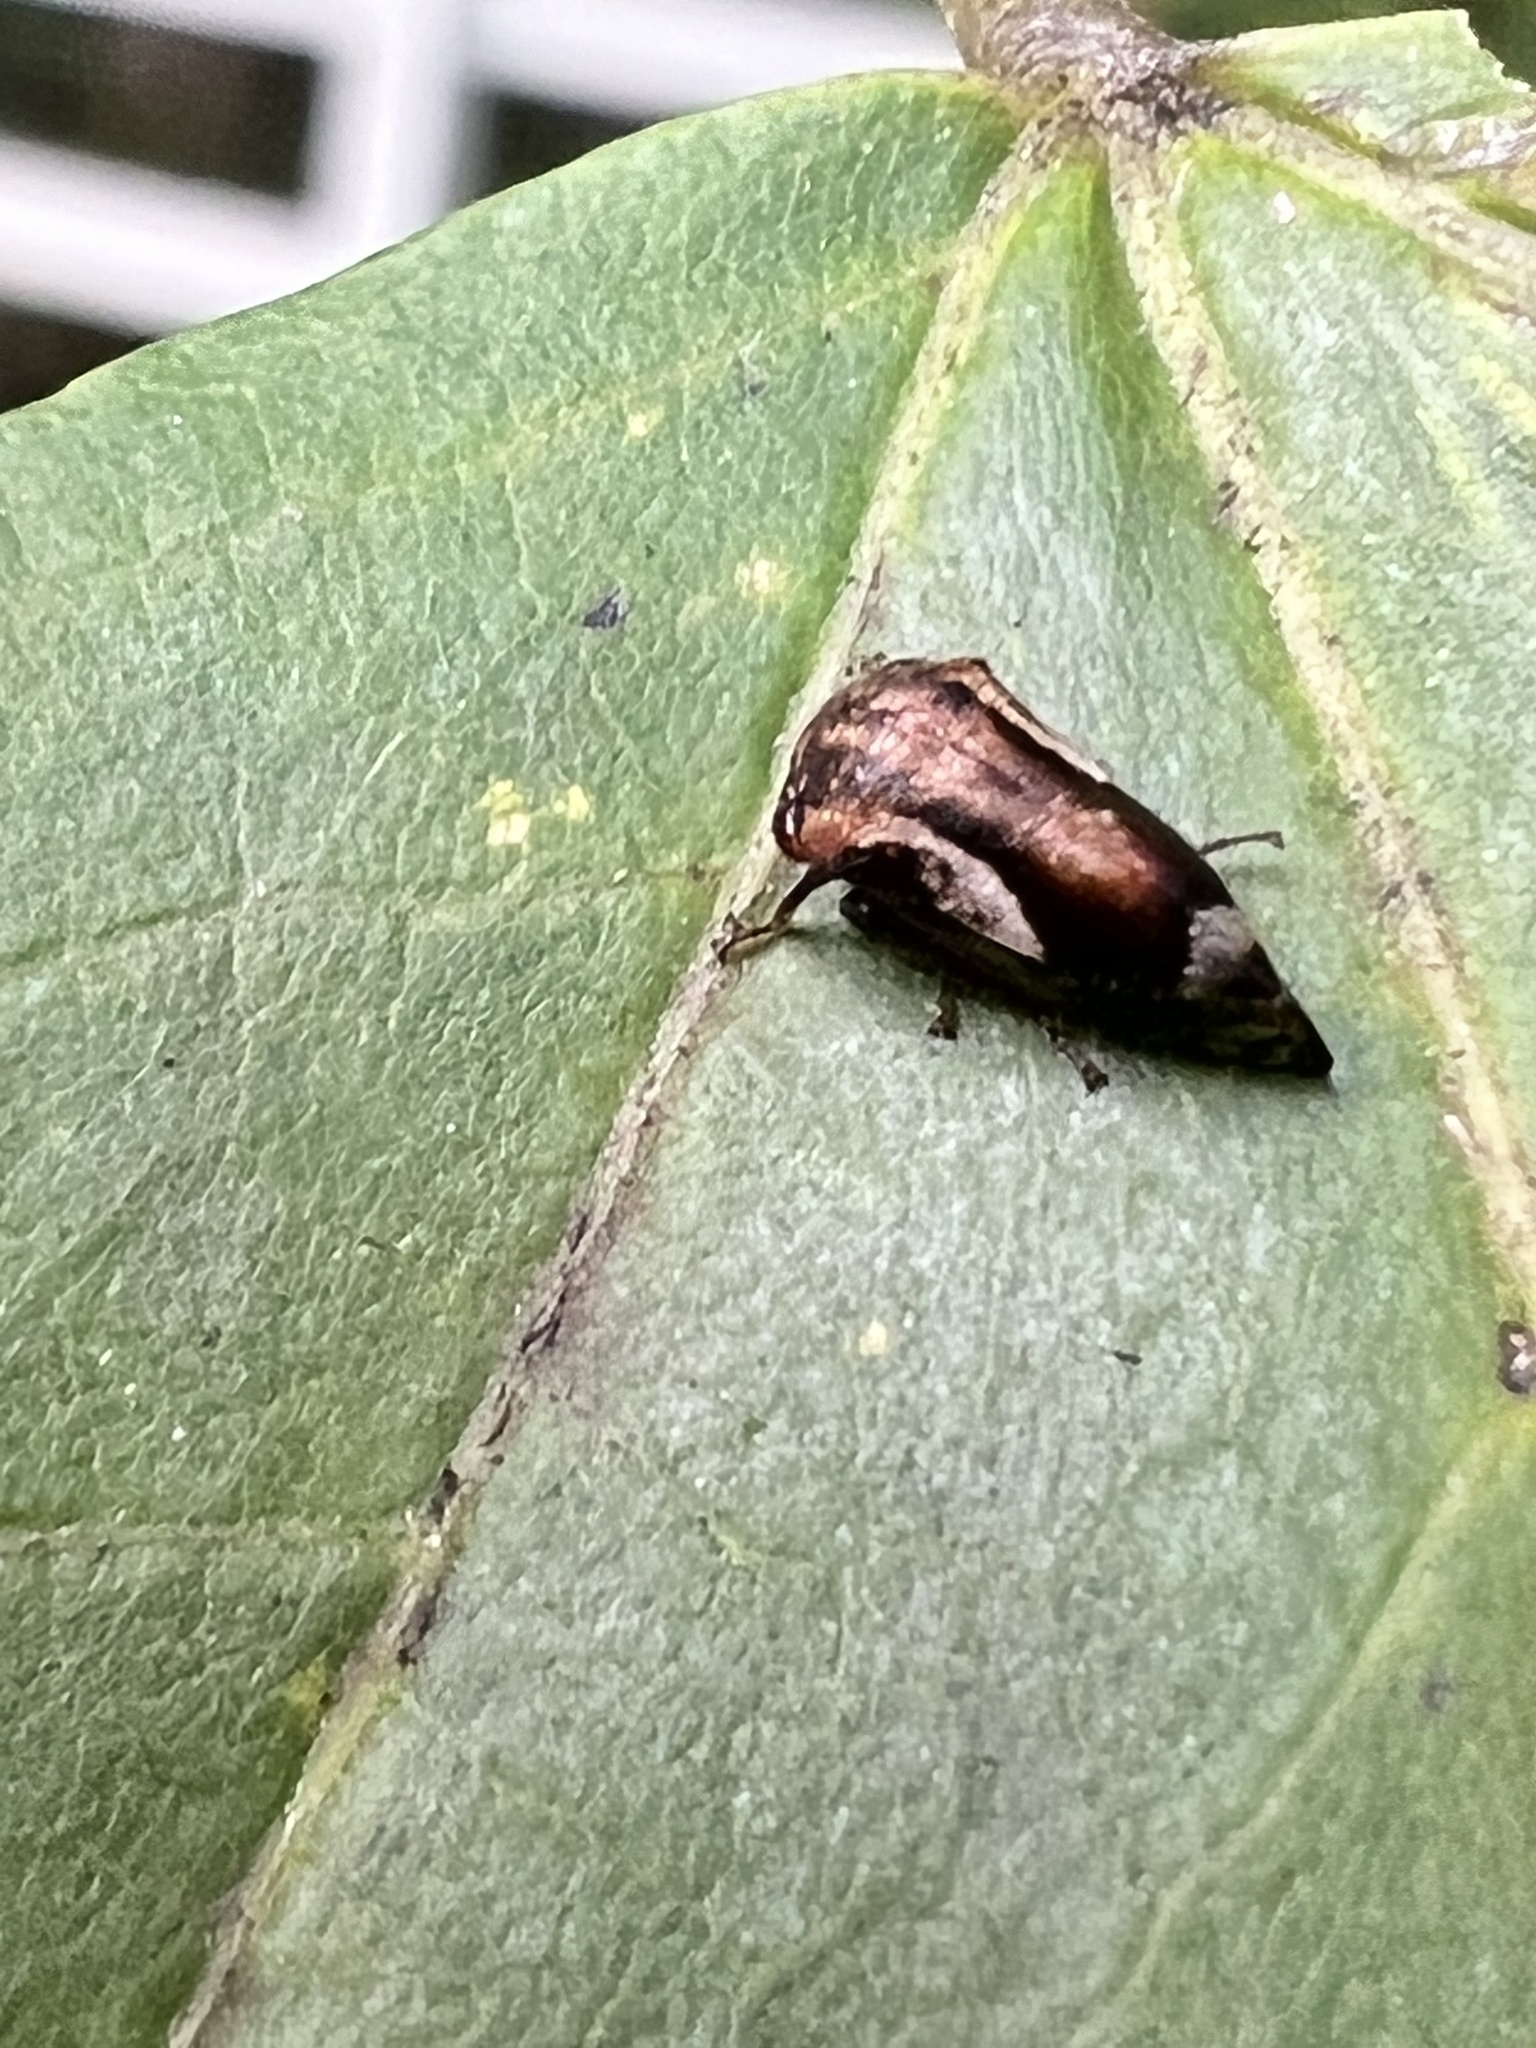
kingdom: Animalia
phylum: Arthropoda
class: Insecta
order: Hemiptera
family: Membracidae
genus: Vanduzea
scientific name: Vanduzea arquata
